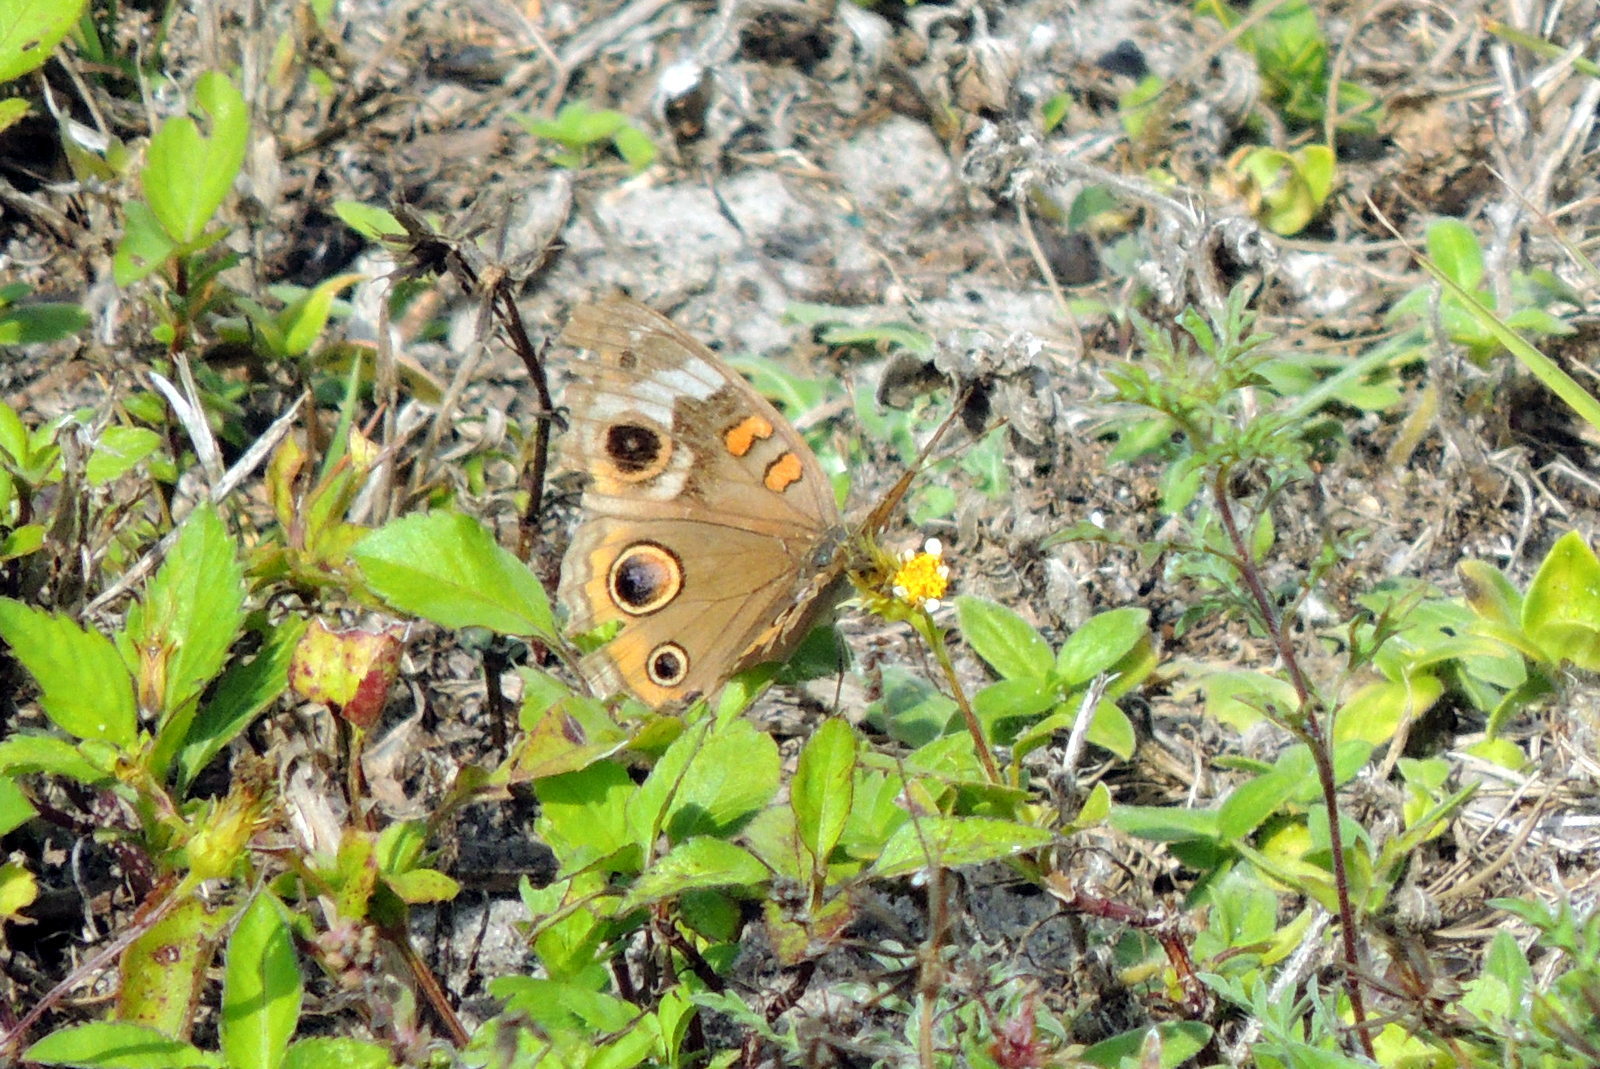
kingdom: Animalia
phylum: Arthropoda
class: Insecta
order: Lepidoptera
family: Nymphalidae
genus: Junonia
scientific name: Junonia coenia
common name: Common buckeye
